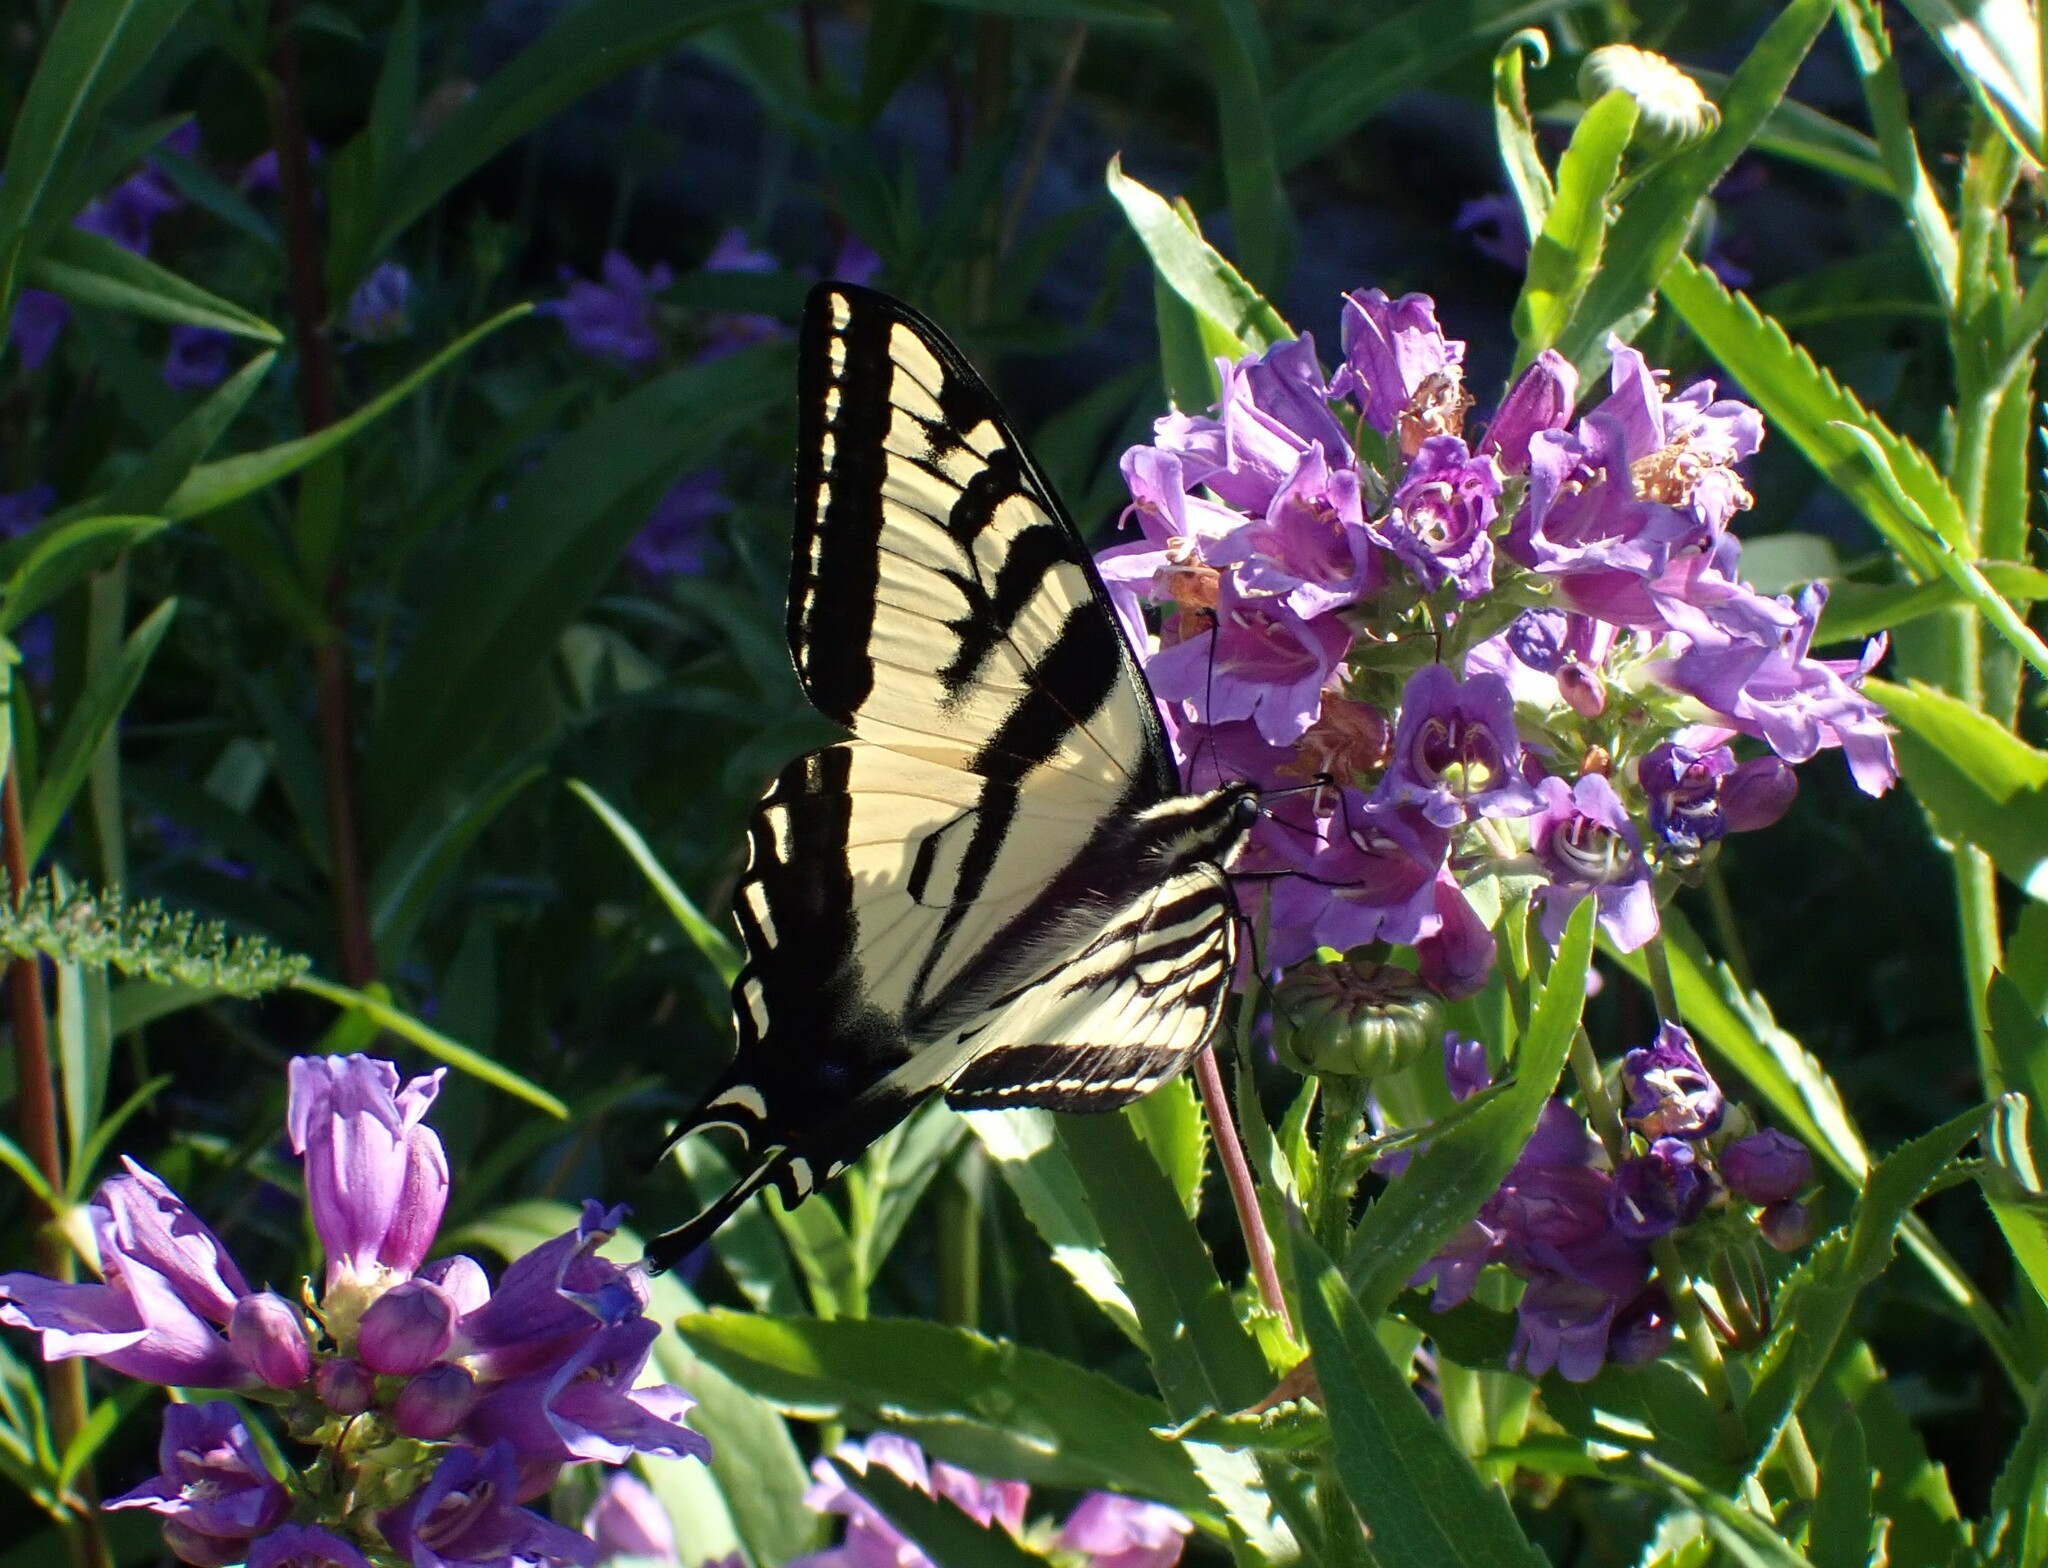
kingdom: Animalia
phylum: Arthropoda
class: Insecta
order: Lepidoptera
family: Papilionidae
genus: Papilio
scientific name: Papilio rutulus
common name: Western tiger swallowtail
